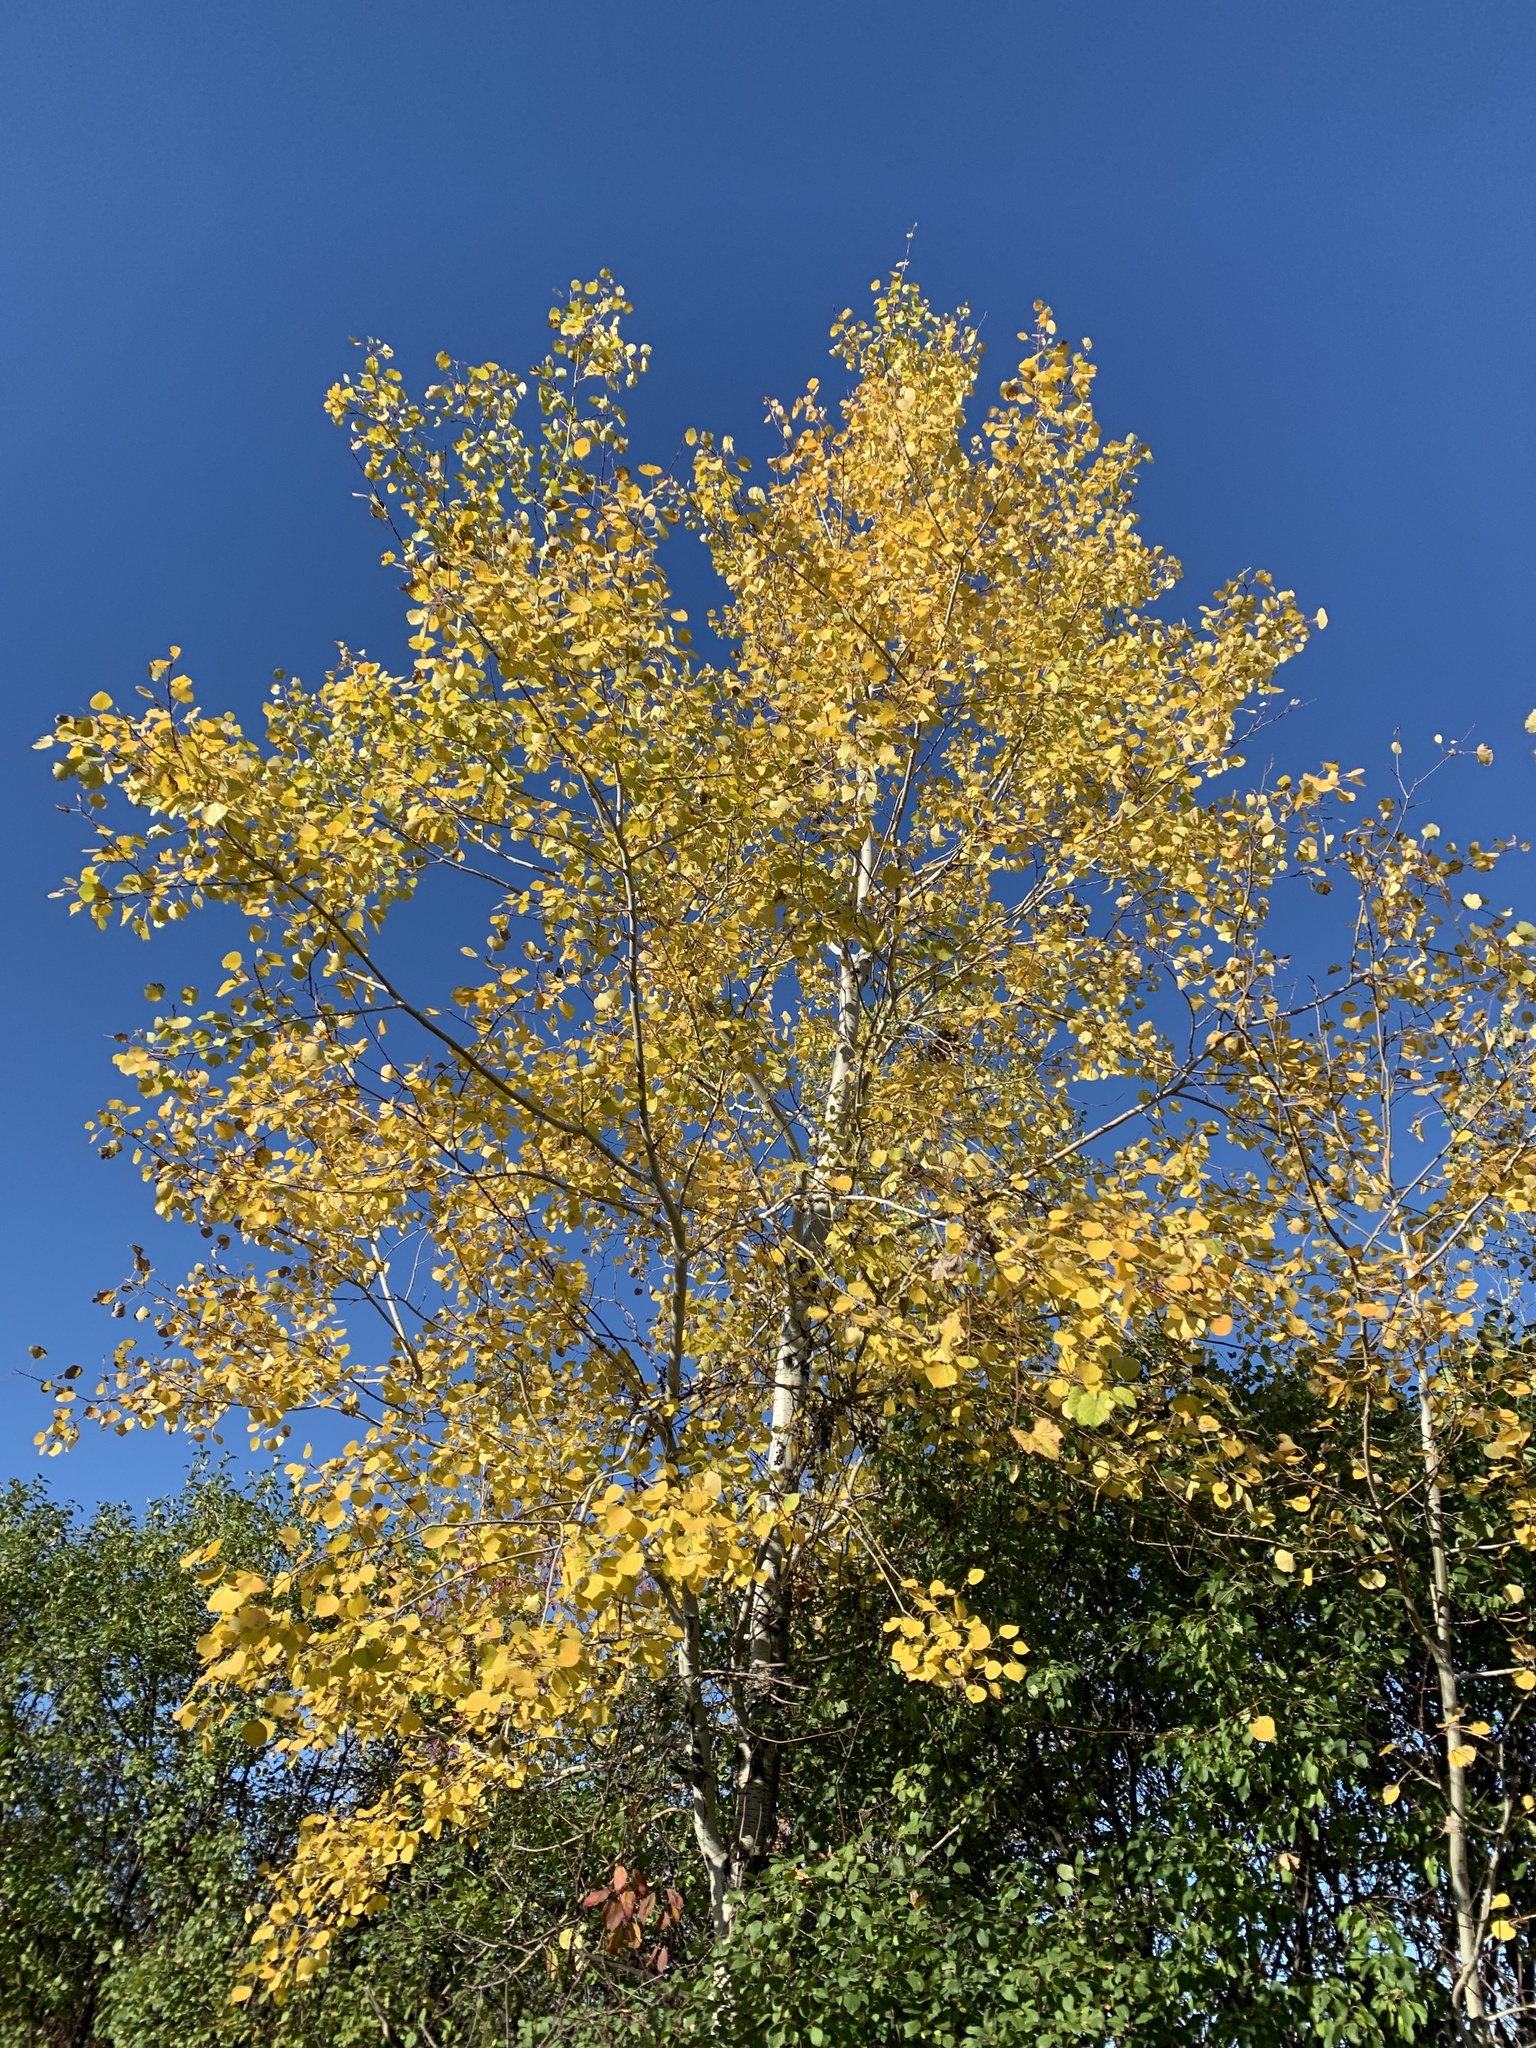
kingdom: Plantae
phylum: Tracheophyta
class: Magnoliopsida
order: Malpighiales
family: Salicaceae
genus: Populus
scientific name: Populus tremuloides
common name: Quaking aspen
